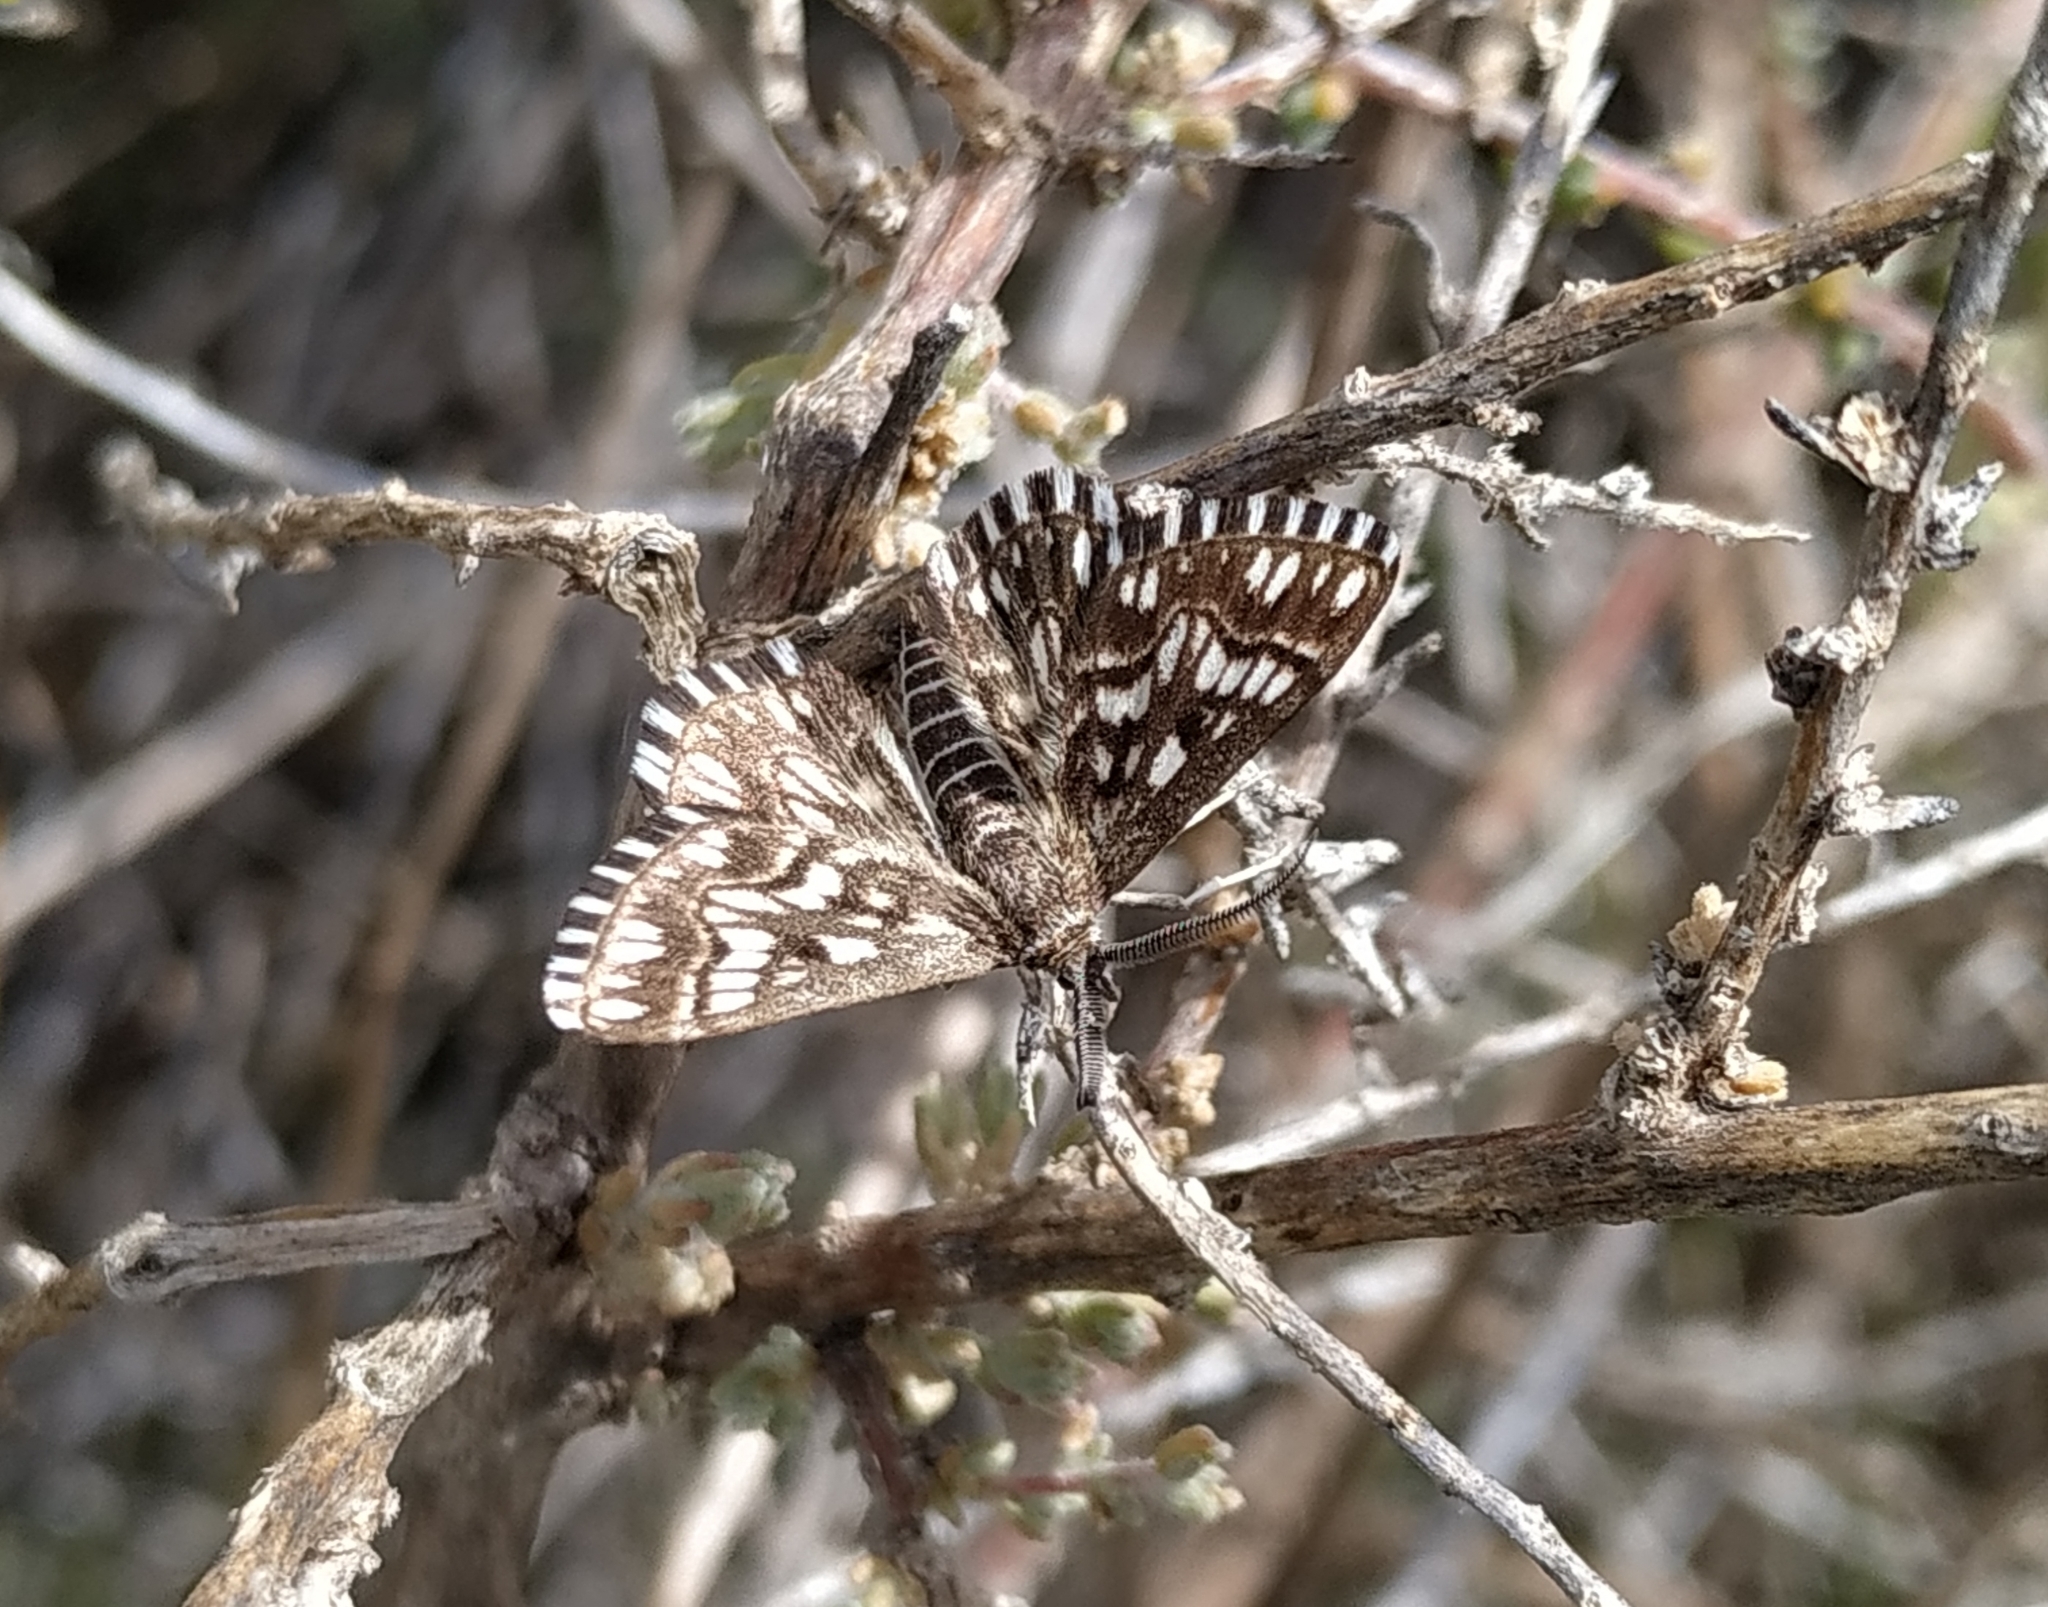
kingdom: Animalia
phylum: Arthropoda
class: Insecta
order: Lepidoptera
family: Geometridae
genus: Cinglis
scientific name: Cinglis andalusiaria
